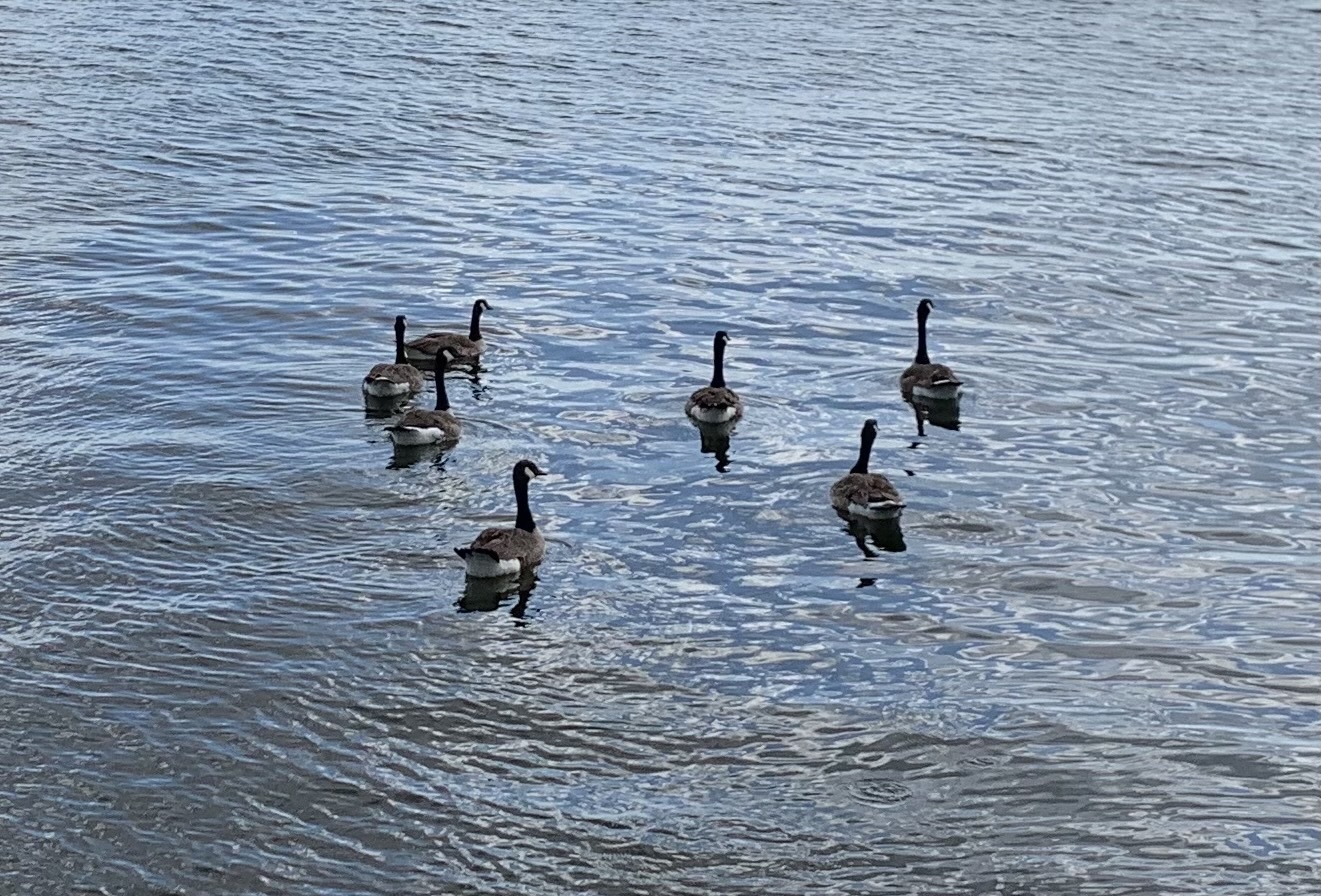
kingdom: Animalia
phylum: Chordata
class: Aves
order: Anseriformes
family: Anatidae
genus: Branta
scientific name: Branta canadensis
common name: Canada goose
